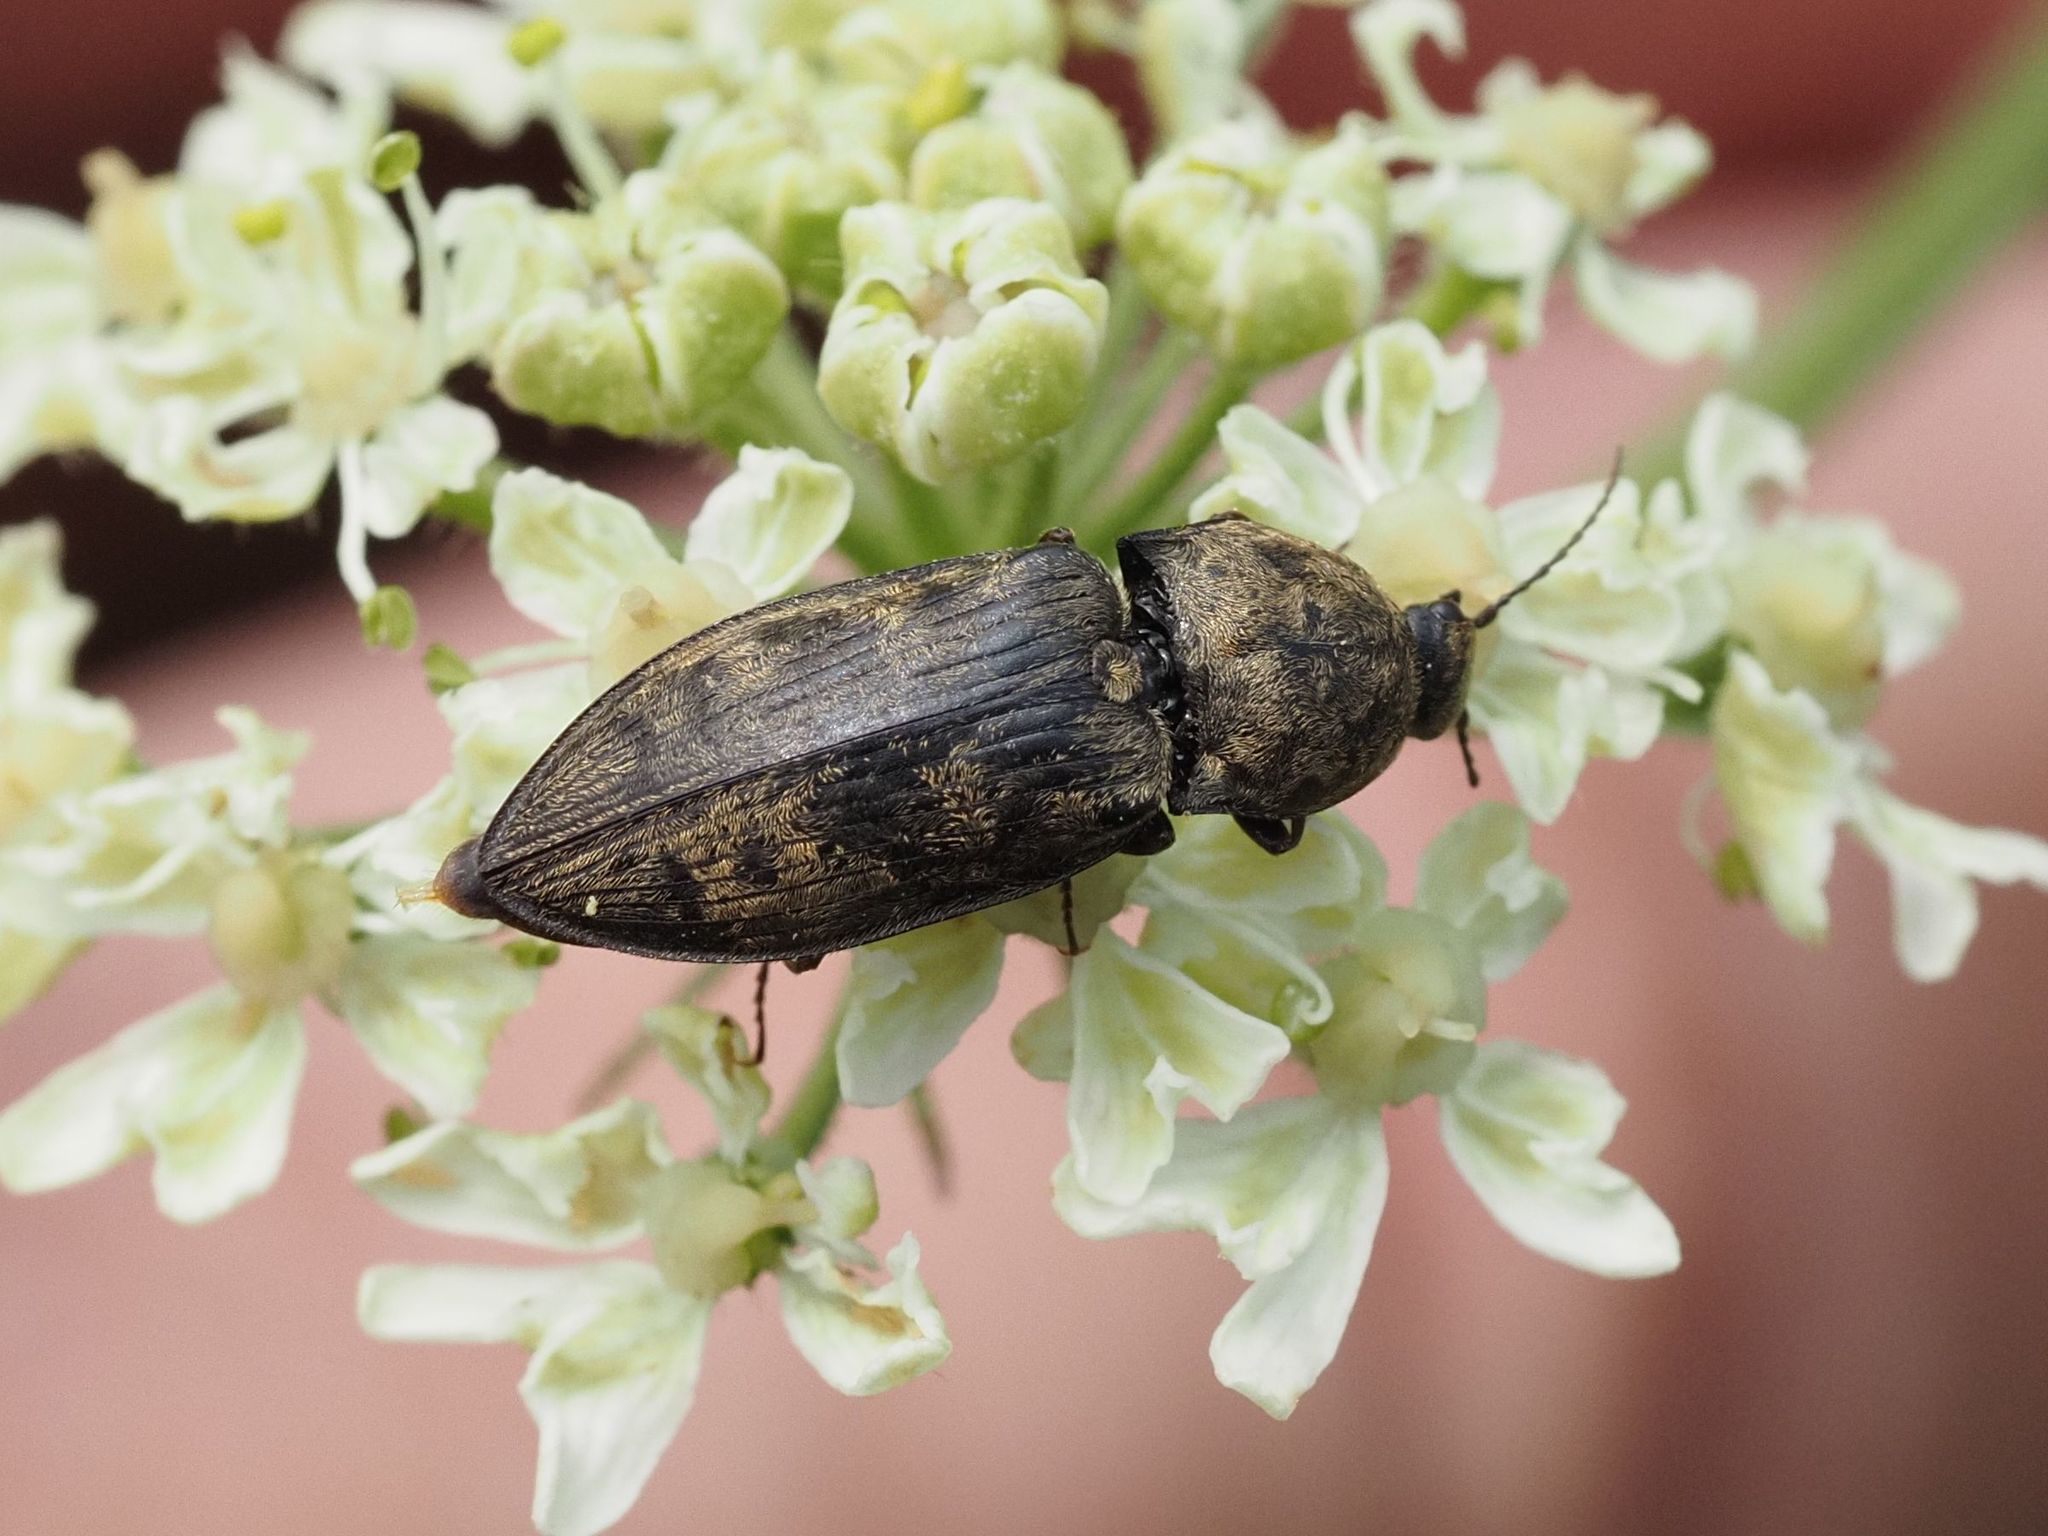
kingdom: Animalia
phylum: Arthropoda
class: Insecta
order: Coleoptera
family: Elateridae
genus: Prosternon
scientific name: Prosternon tessellatum
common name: Chequered click beetle
